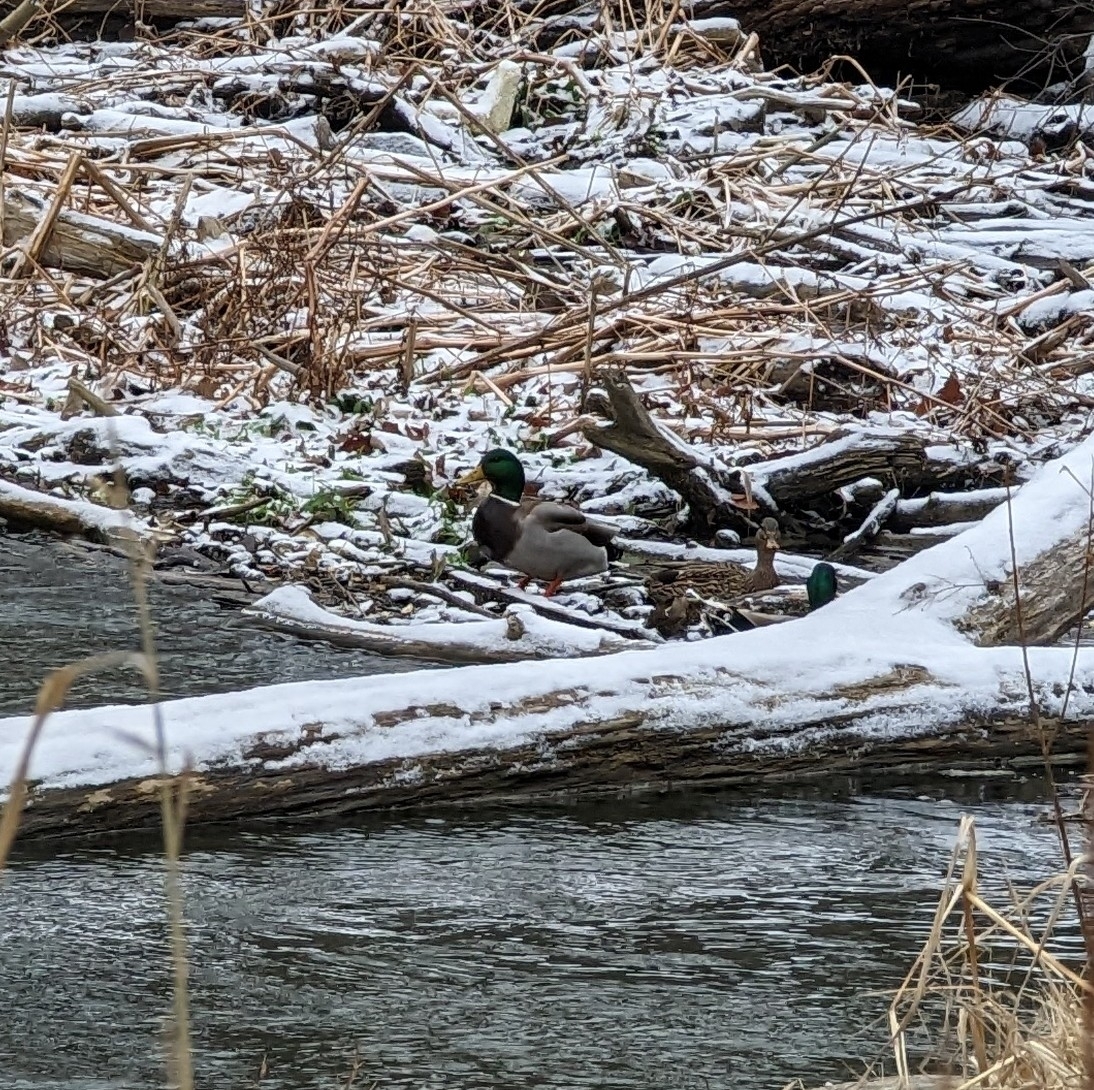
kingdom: Animalia
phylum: Chordata
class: Aves
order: Anseriformes
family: Anatidae
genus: Anas
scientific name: Anas platyrhynchos
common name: Mallard
